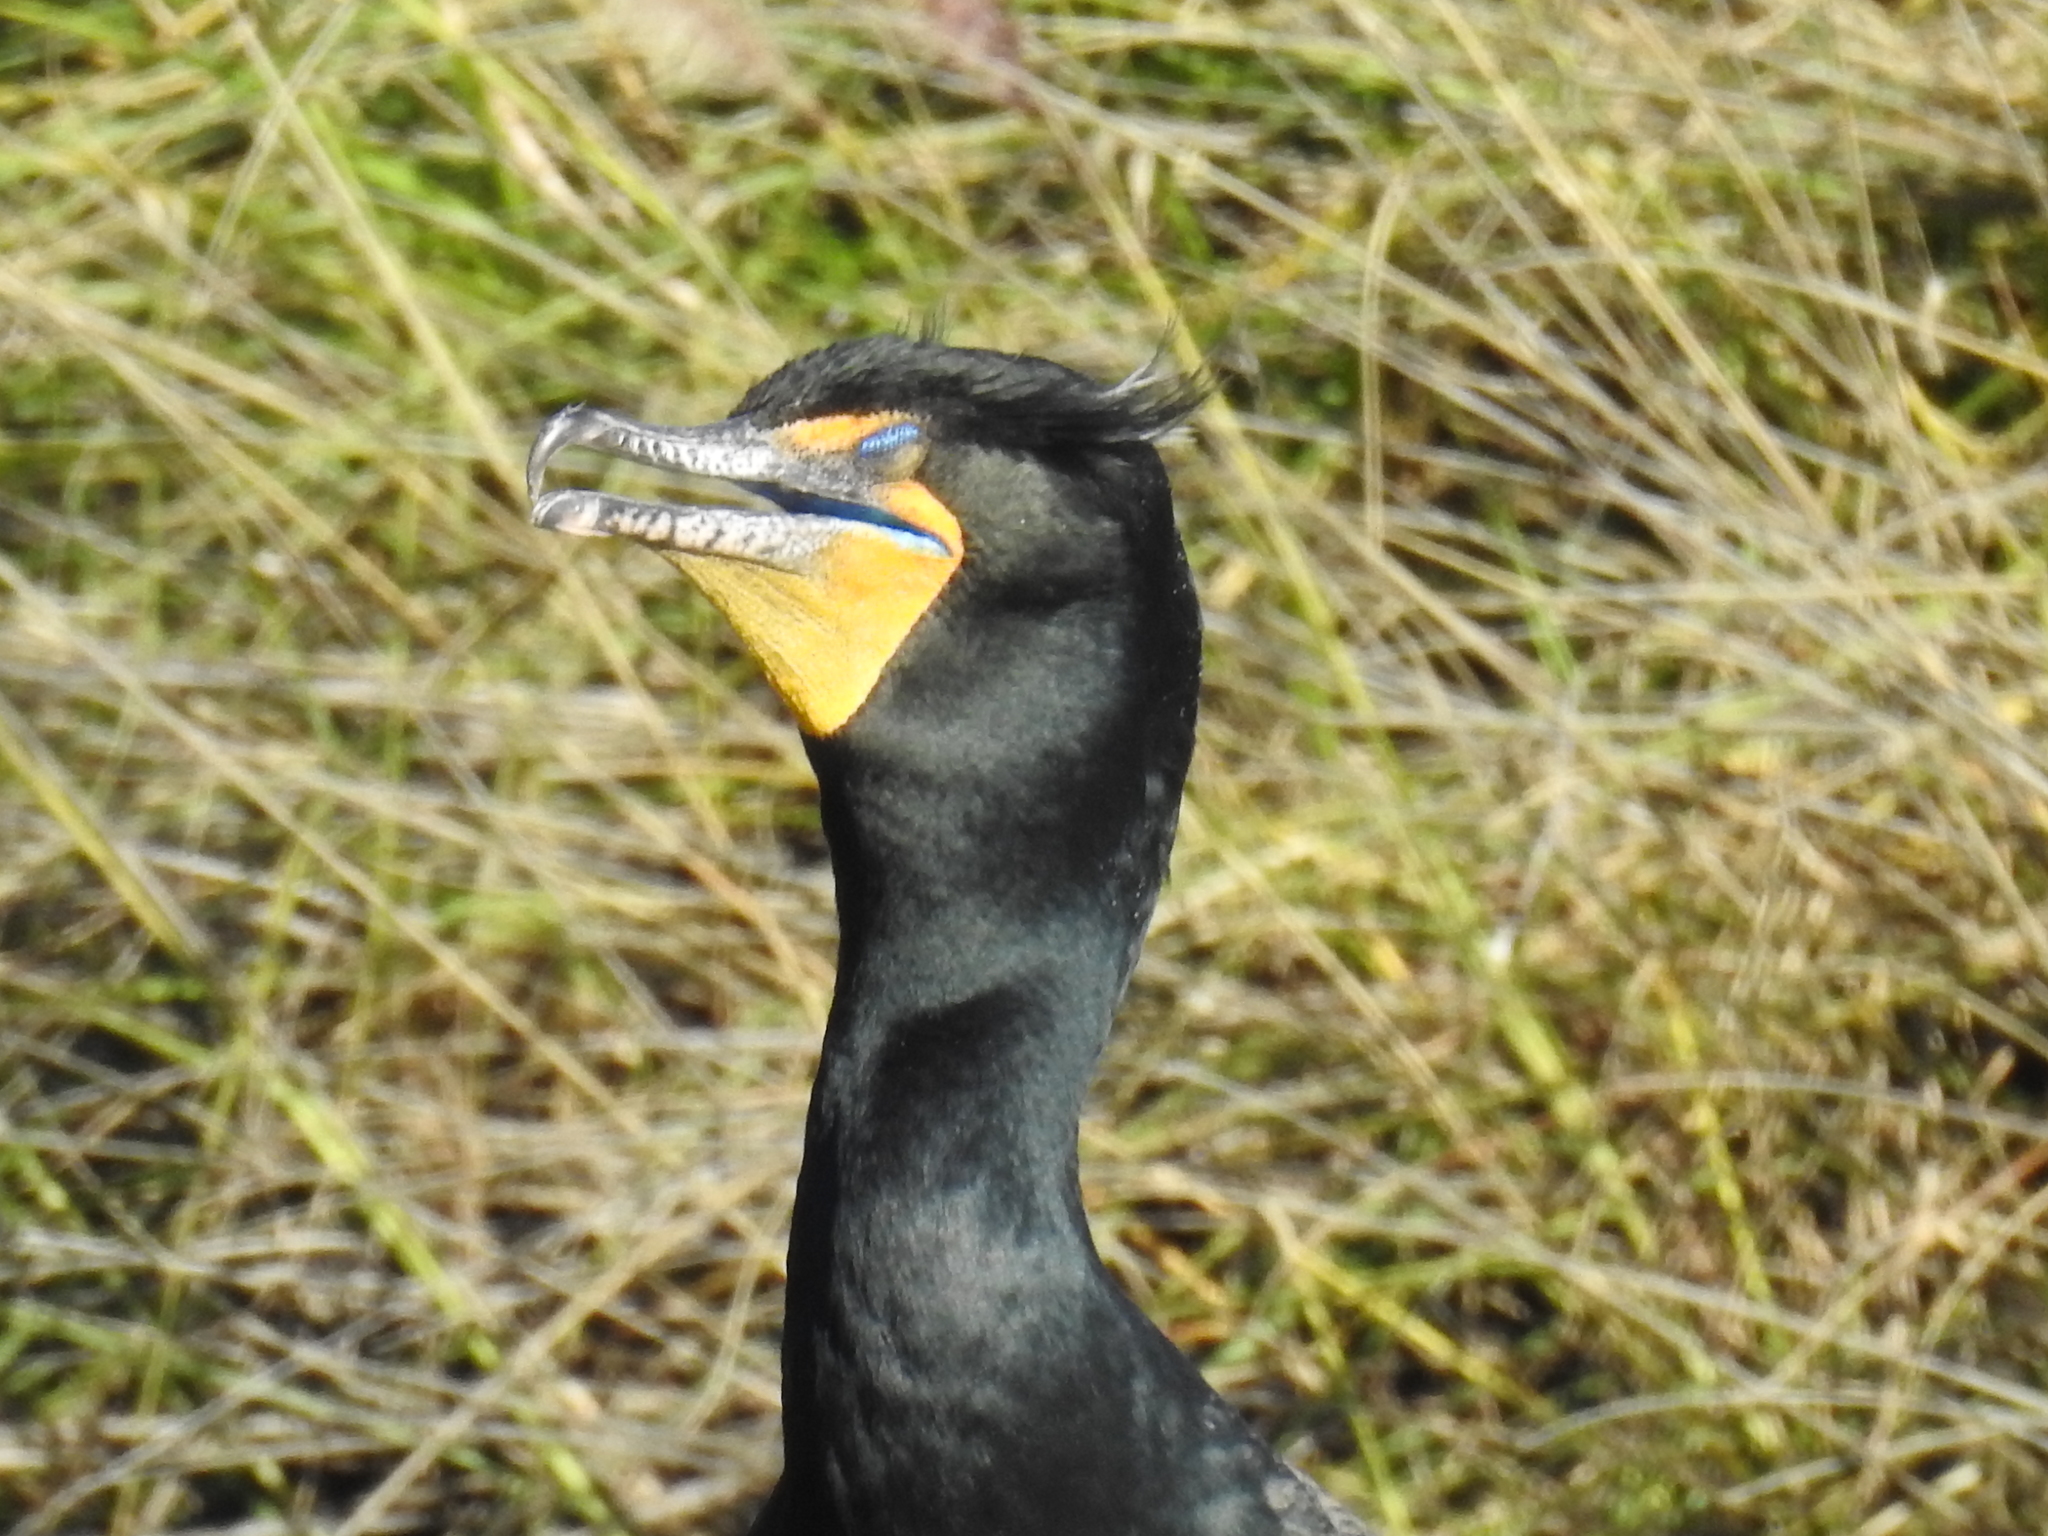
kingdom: Animalia
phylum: Chordata
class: Aves
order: Suliformes
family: Phalacrocoracidae
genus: Phalacrocorax
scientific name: Phalacrocorax auritus
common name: Double-crested cormorant
